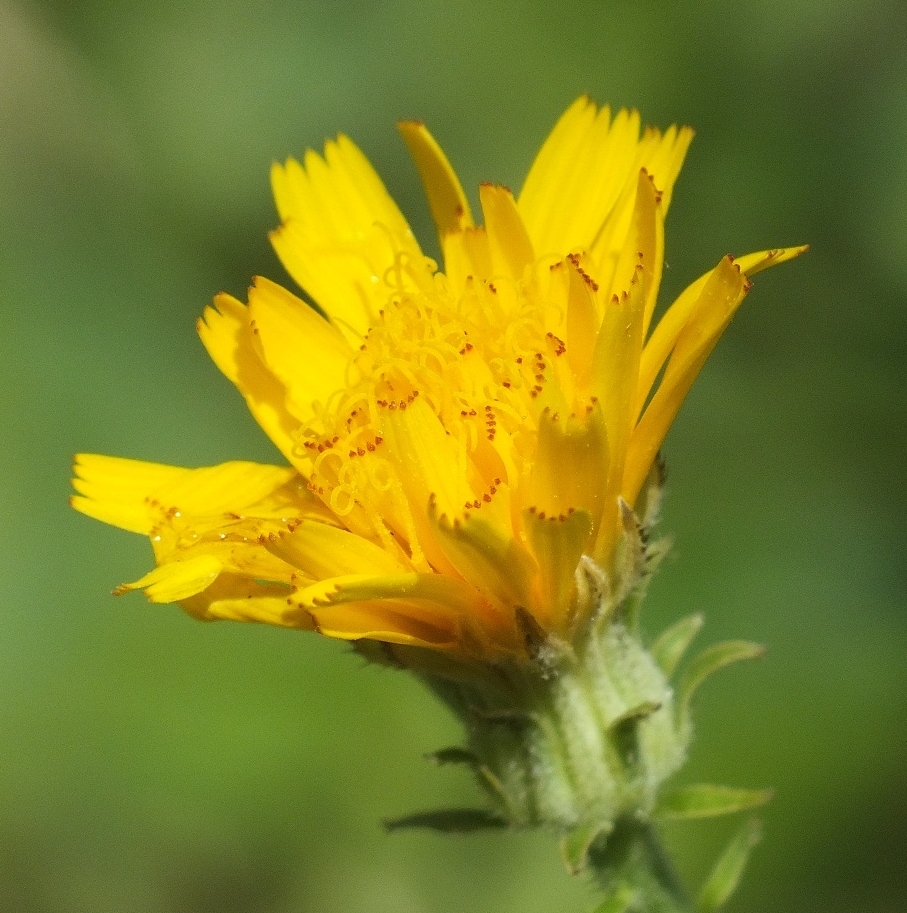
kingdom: Plantae
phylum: Tracheophyta
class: Magnoliopsida
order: Asterales
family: Asteraceae
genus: Picris
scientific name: Picris hieracioides
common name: Hawkweed oxtongue
